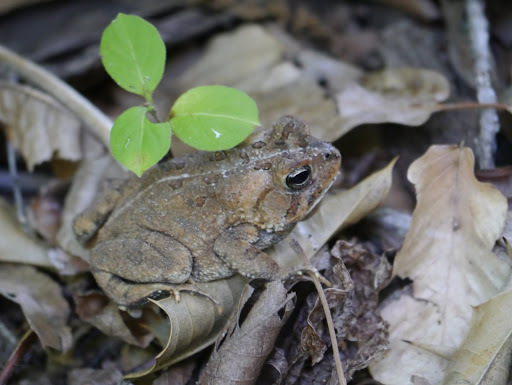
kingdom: Animalia
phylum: Chordata
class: Amphibia
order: Anura
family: Bufonidae
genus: Anaxyrus
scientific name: Anaxyrus fowleri
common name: Fowler's toad
